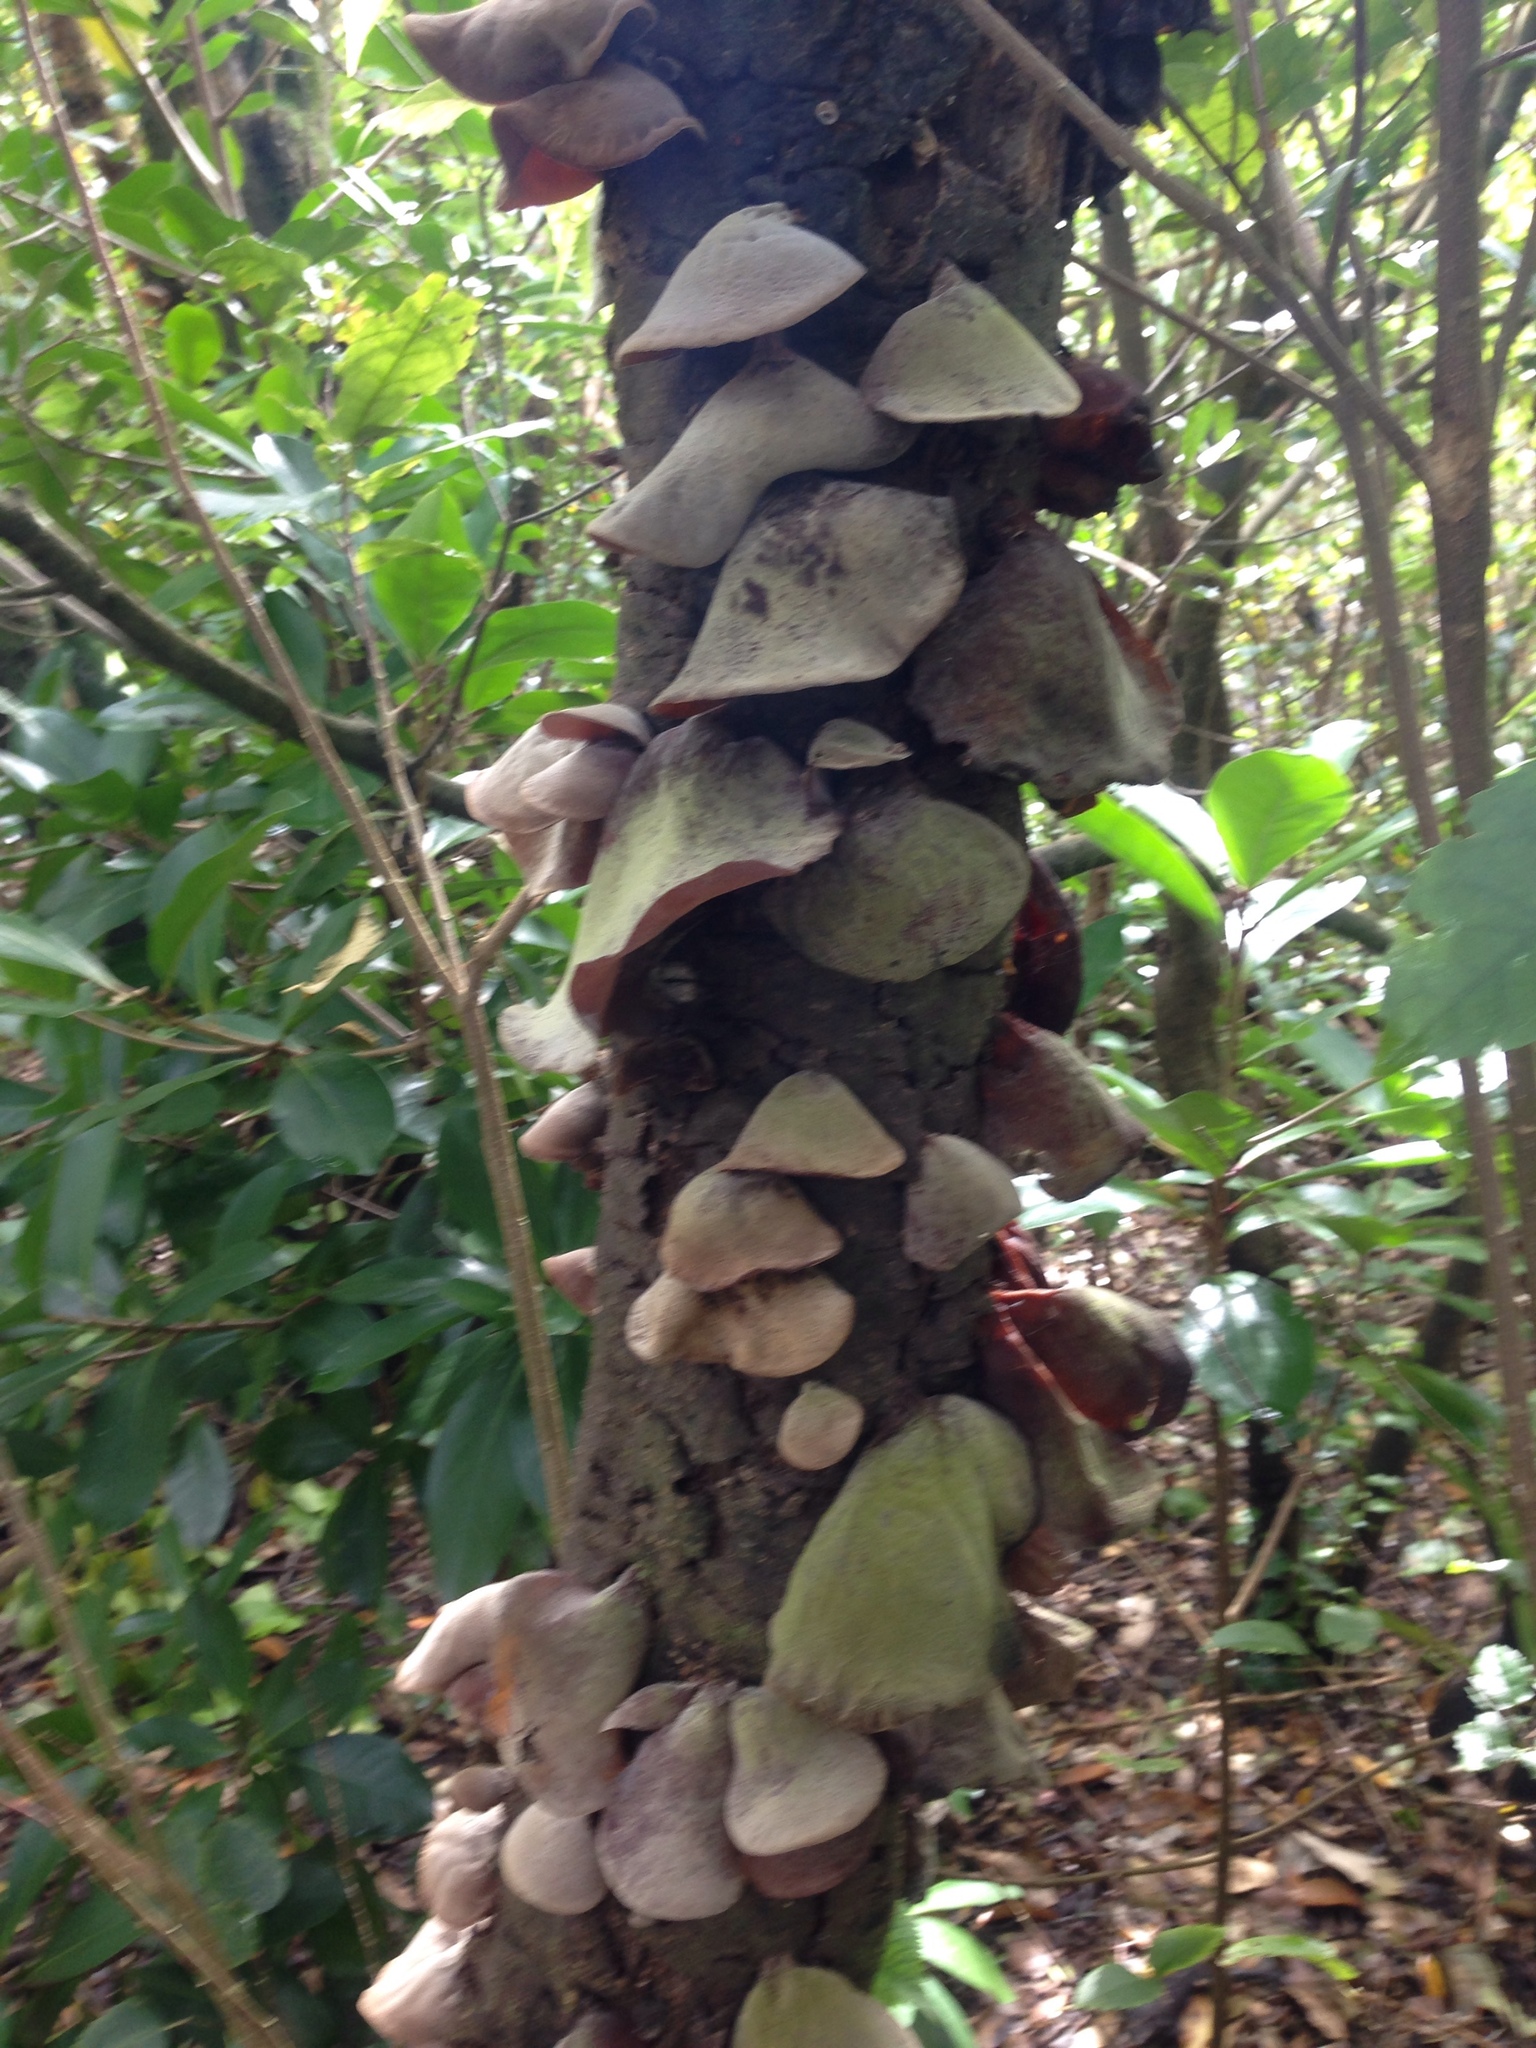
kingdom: Fungi
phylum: Basidiomycota
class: Agaricomycetes
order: Auriculariales
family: Auriculariaceae
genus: Auricularia
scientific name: Auricularia cornea
